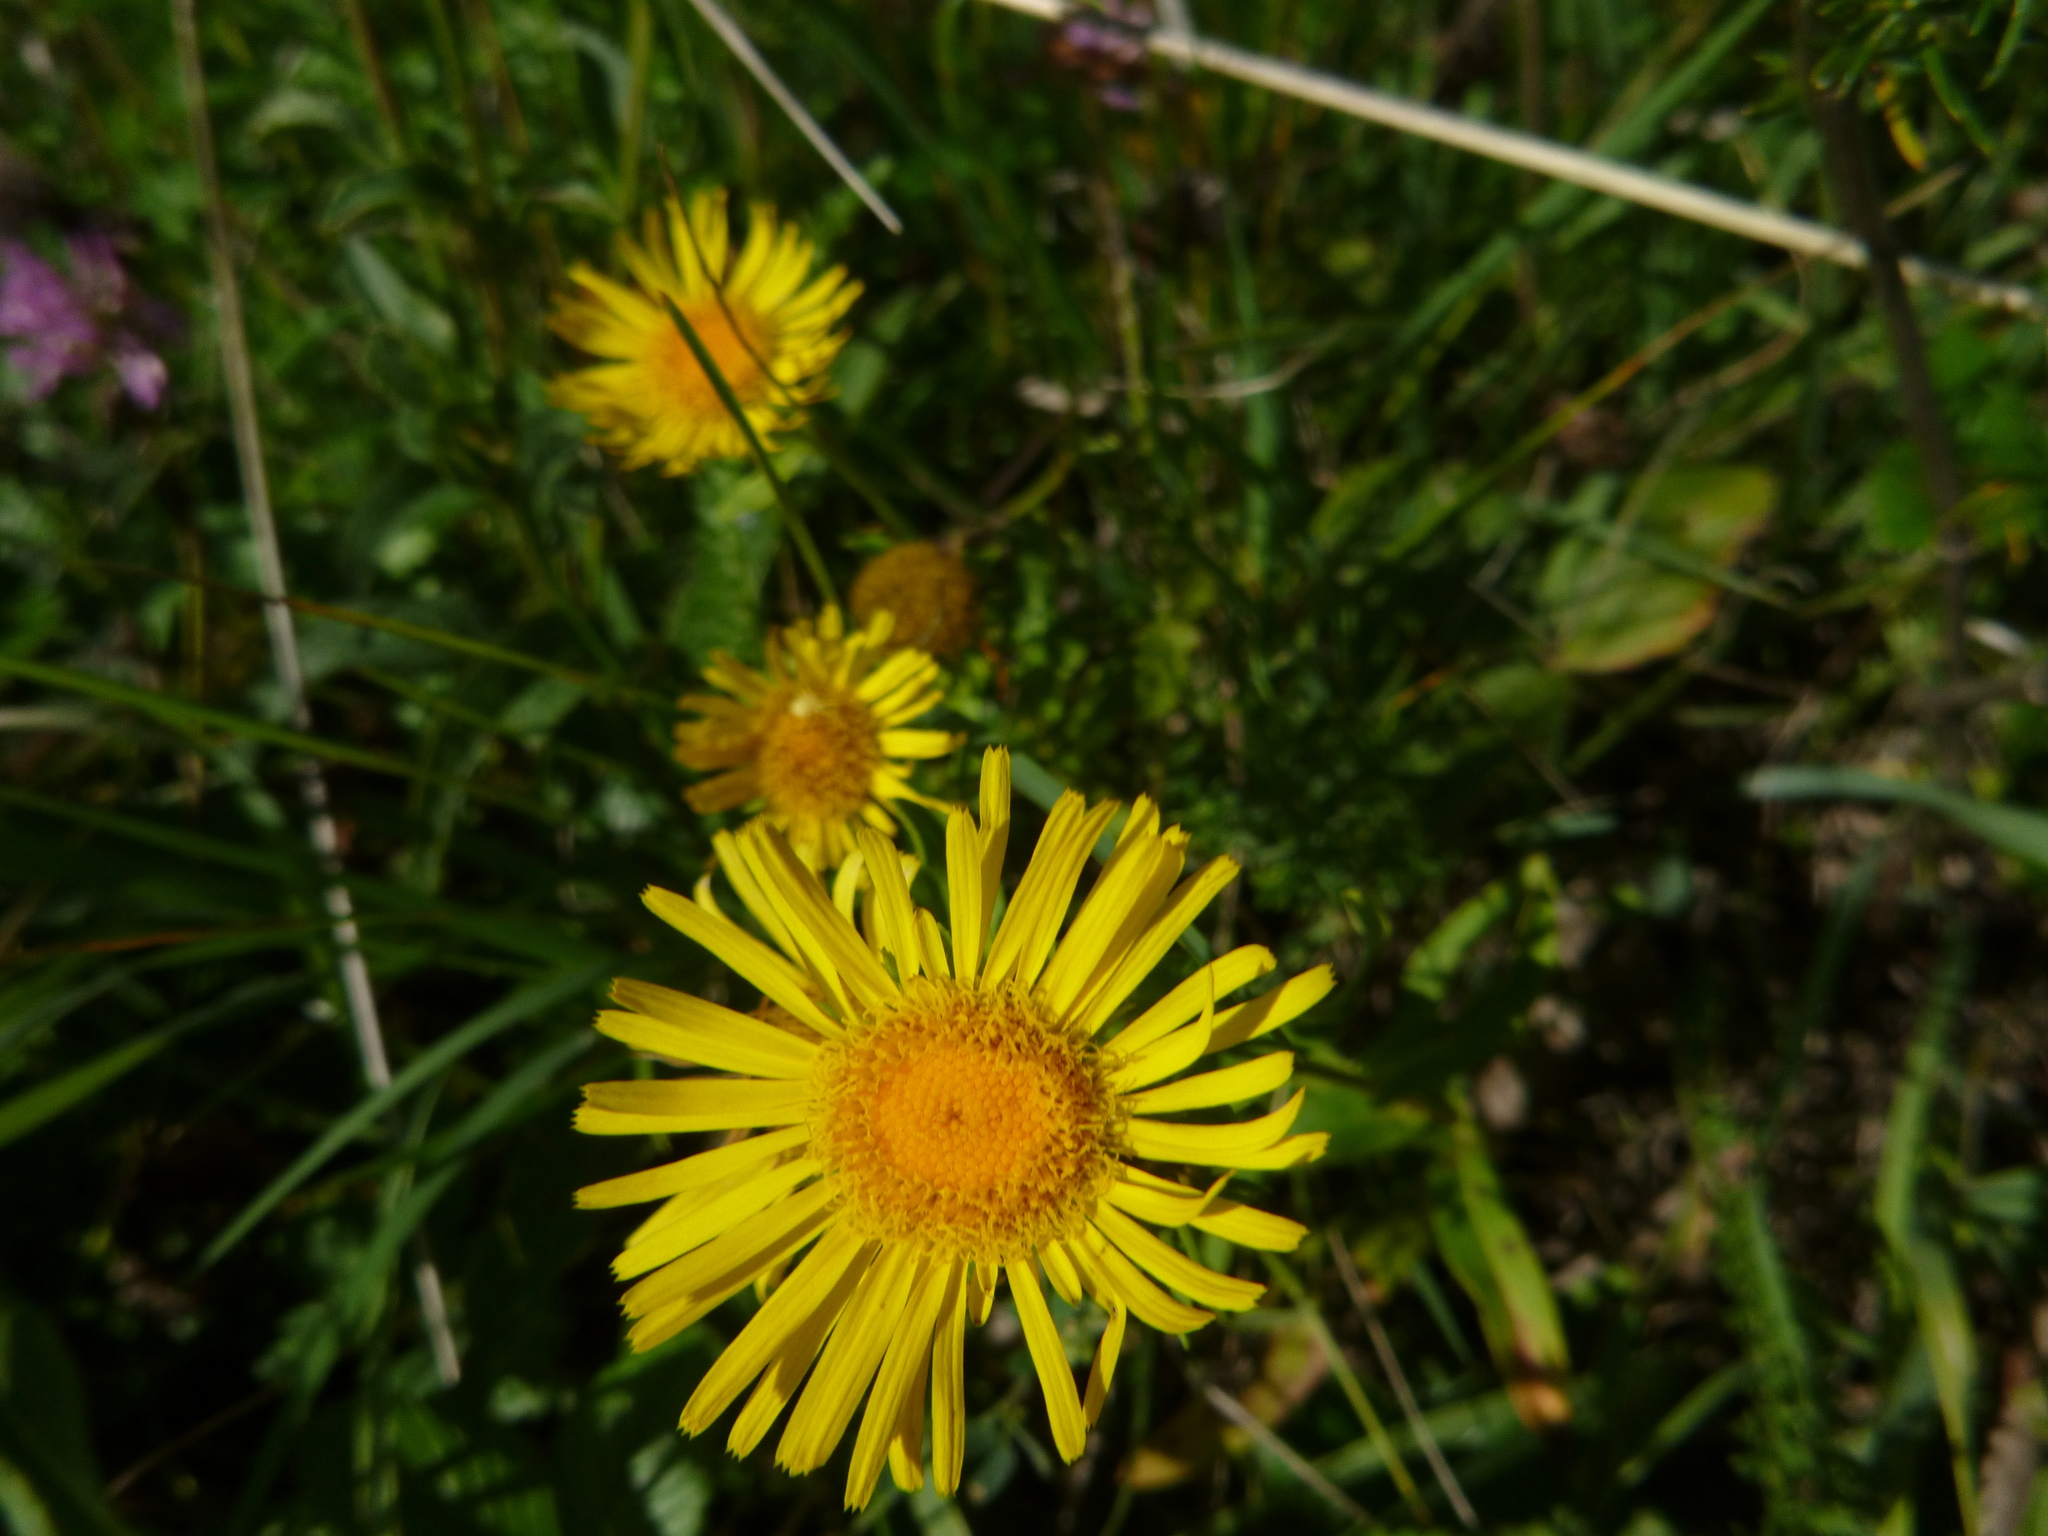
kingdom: Plantae
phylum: Tracheophyta
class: Magnoliopsida
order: Asterales
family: Asteraceae
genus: Pentanema
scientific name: Pentanema britannicum
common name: British elecampane
